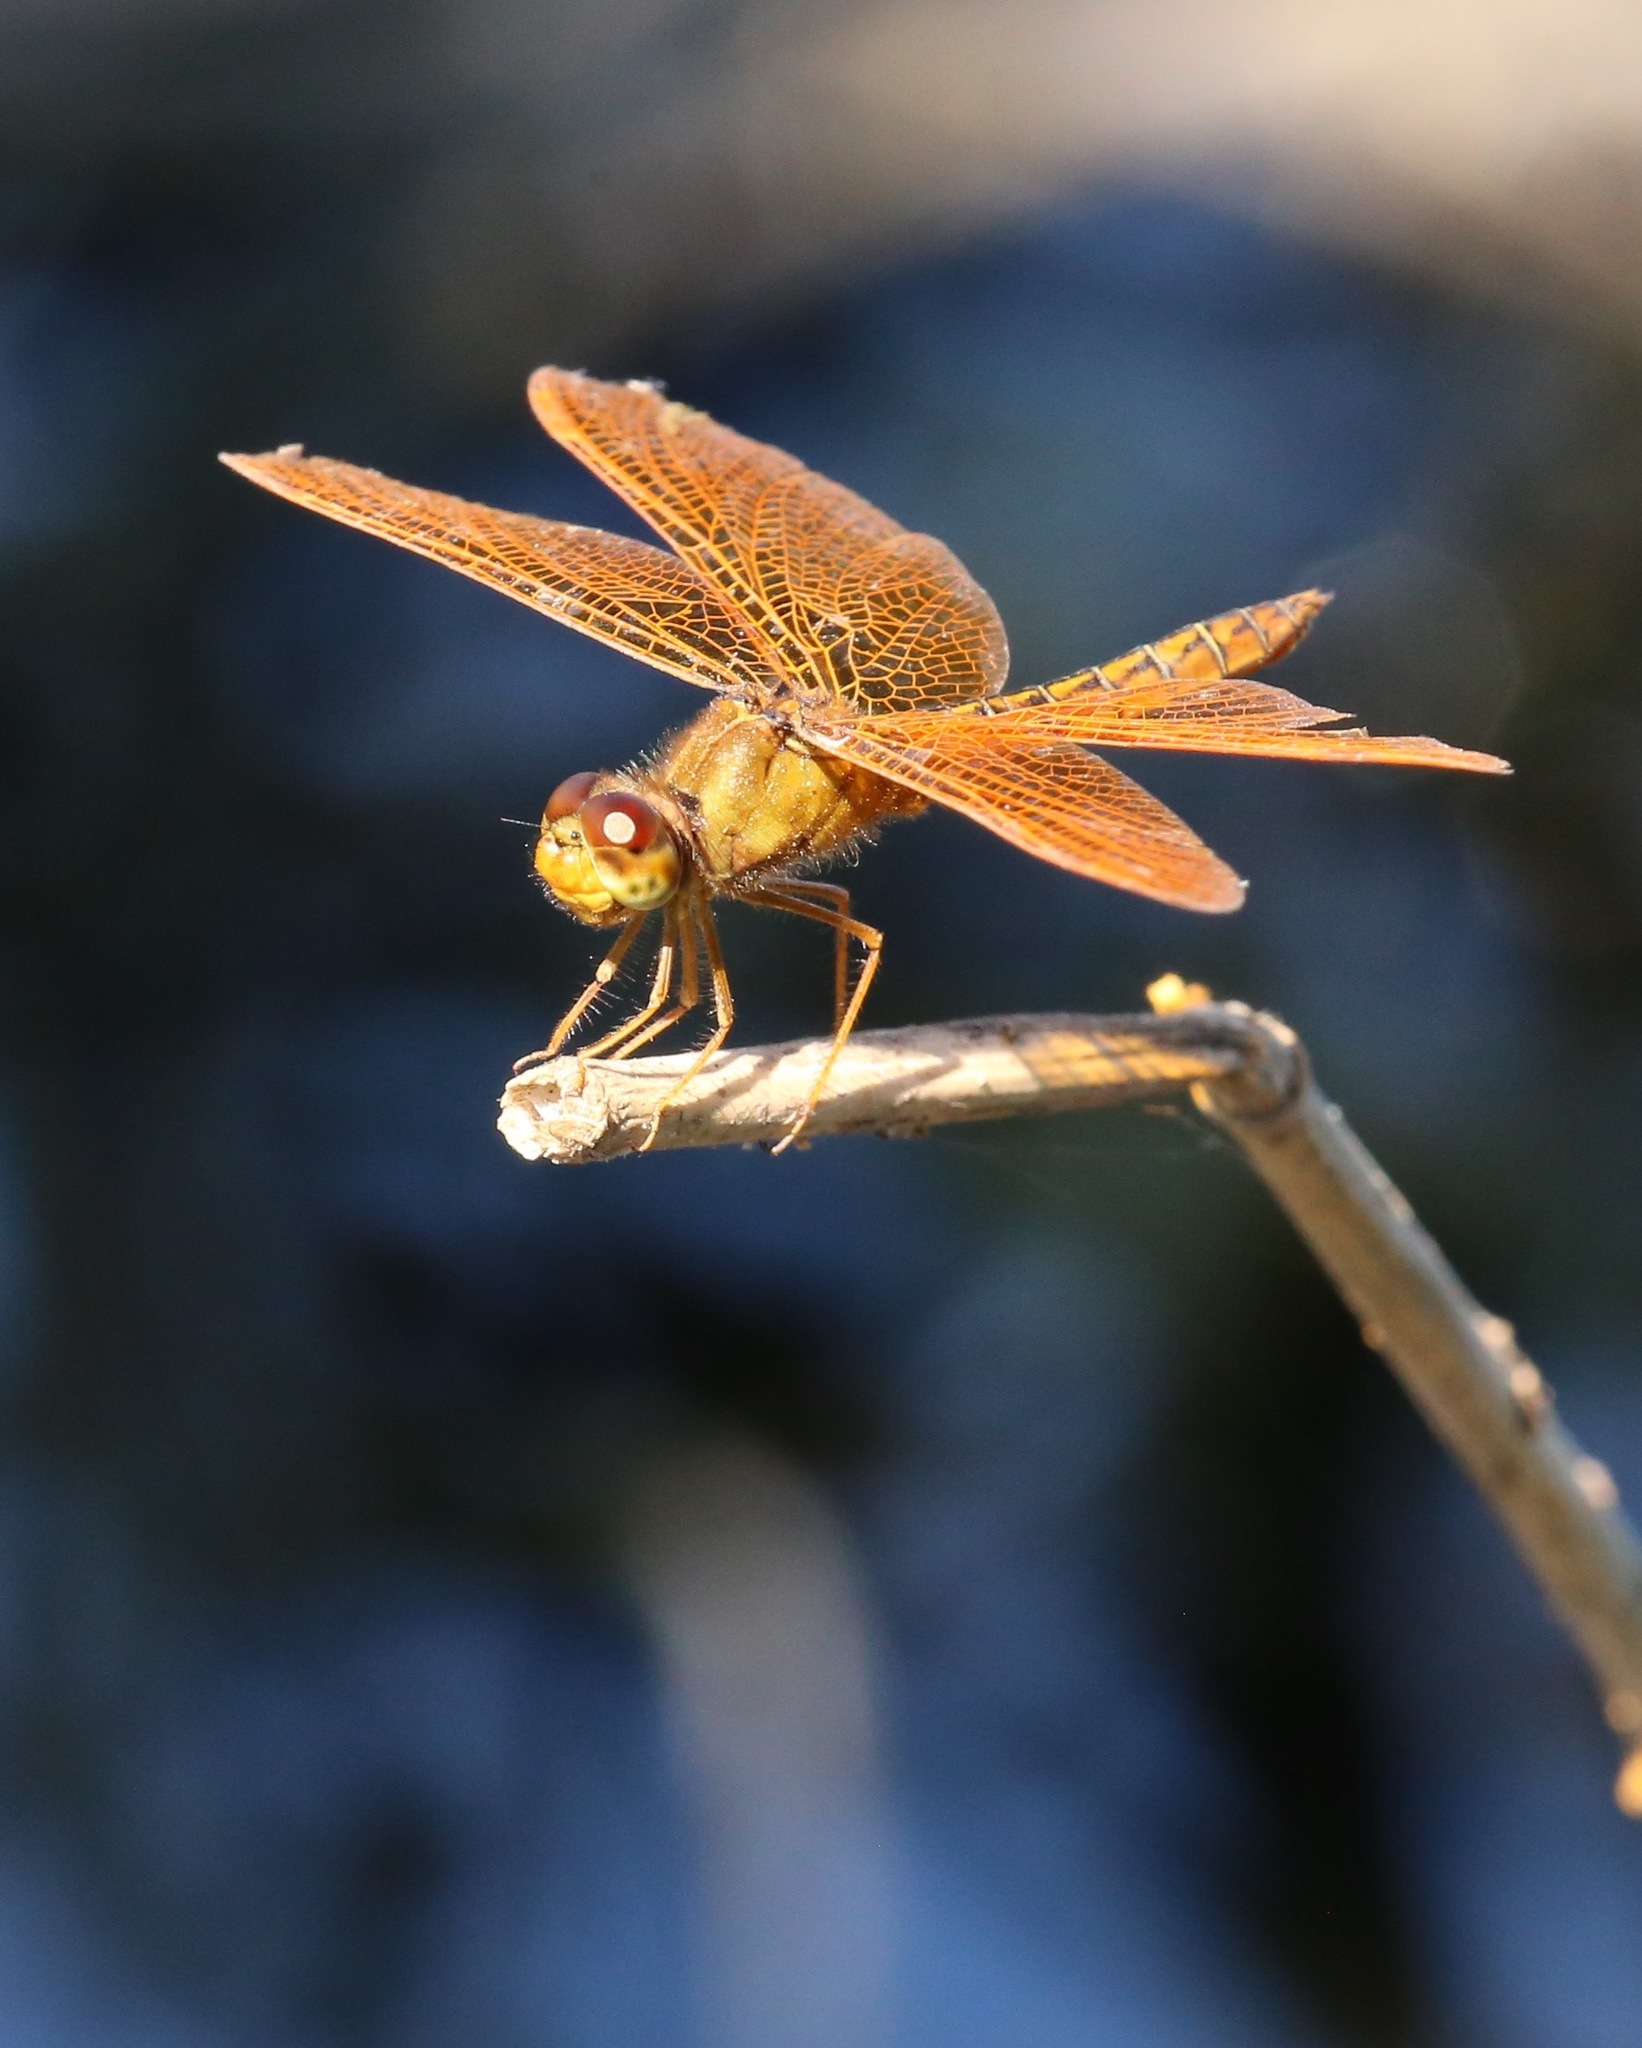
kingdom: Animalia
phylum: Arthropoda
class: Insecta
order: Odonata
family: Libellulidae
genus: Perithemis
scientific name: Perithemis intensa
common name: Mexican amberwing
